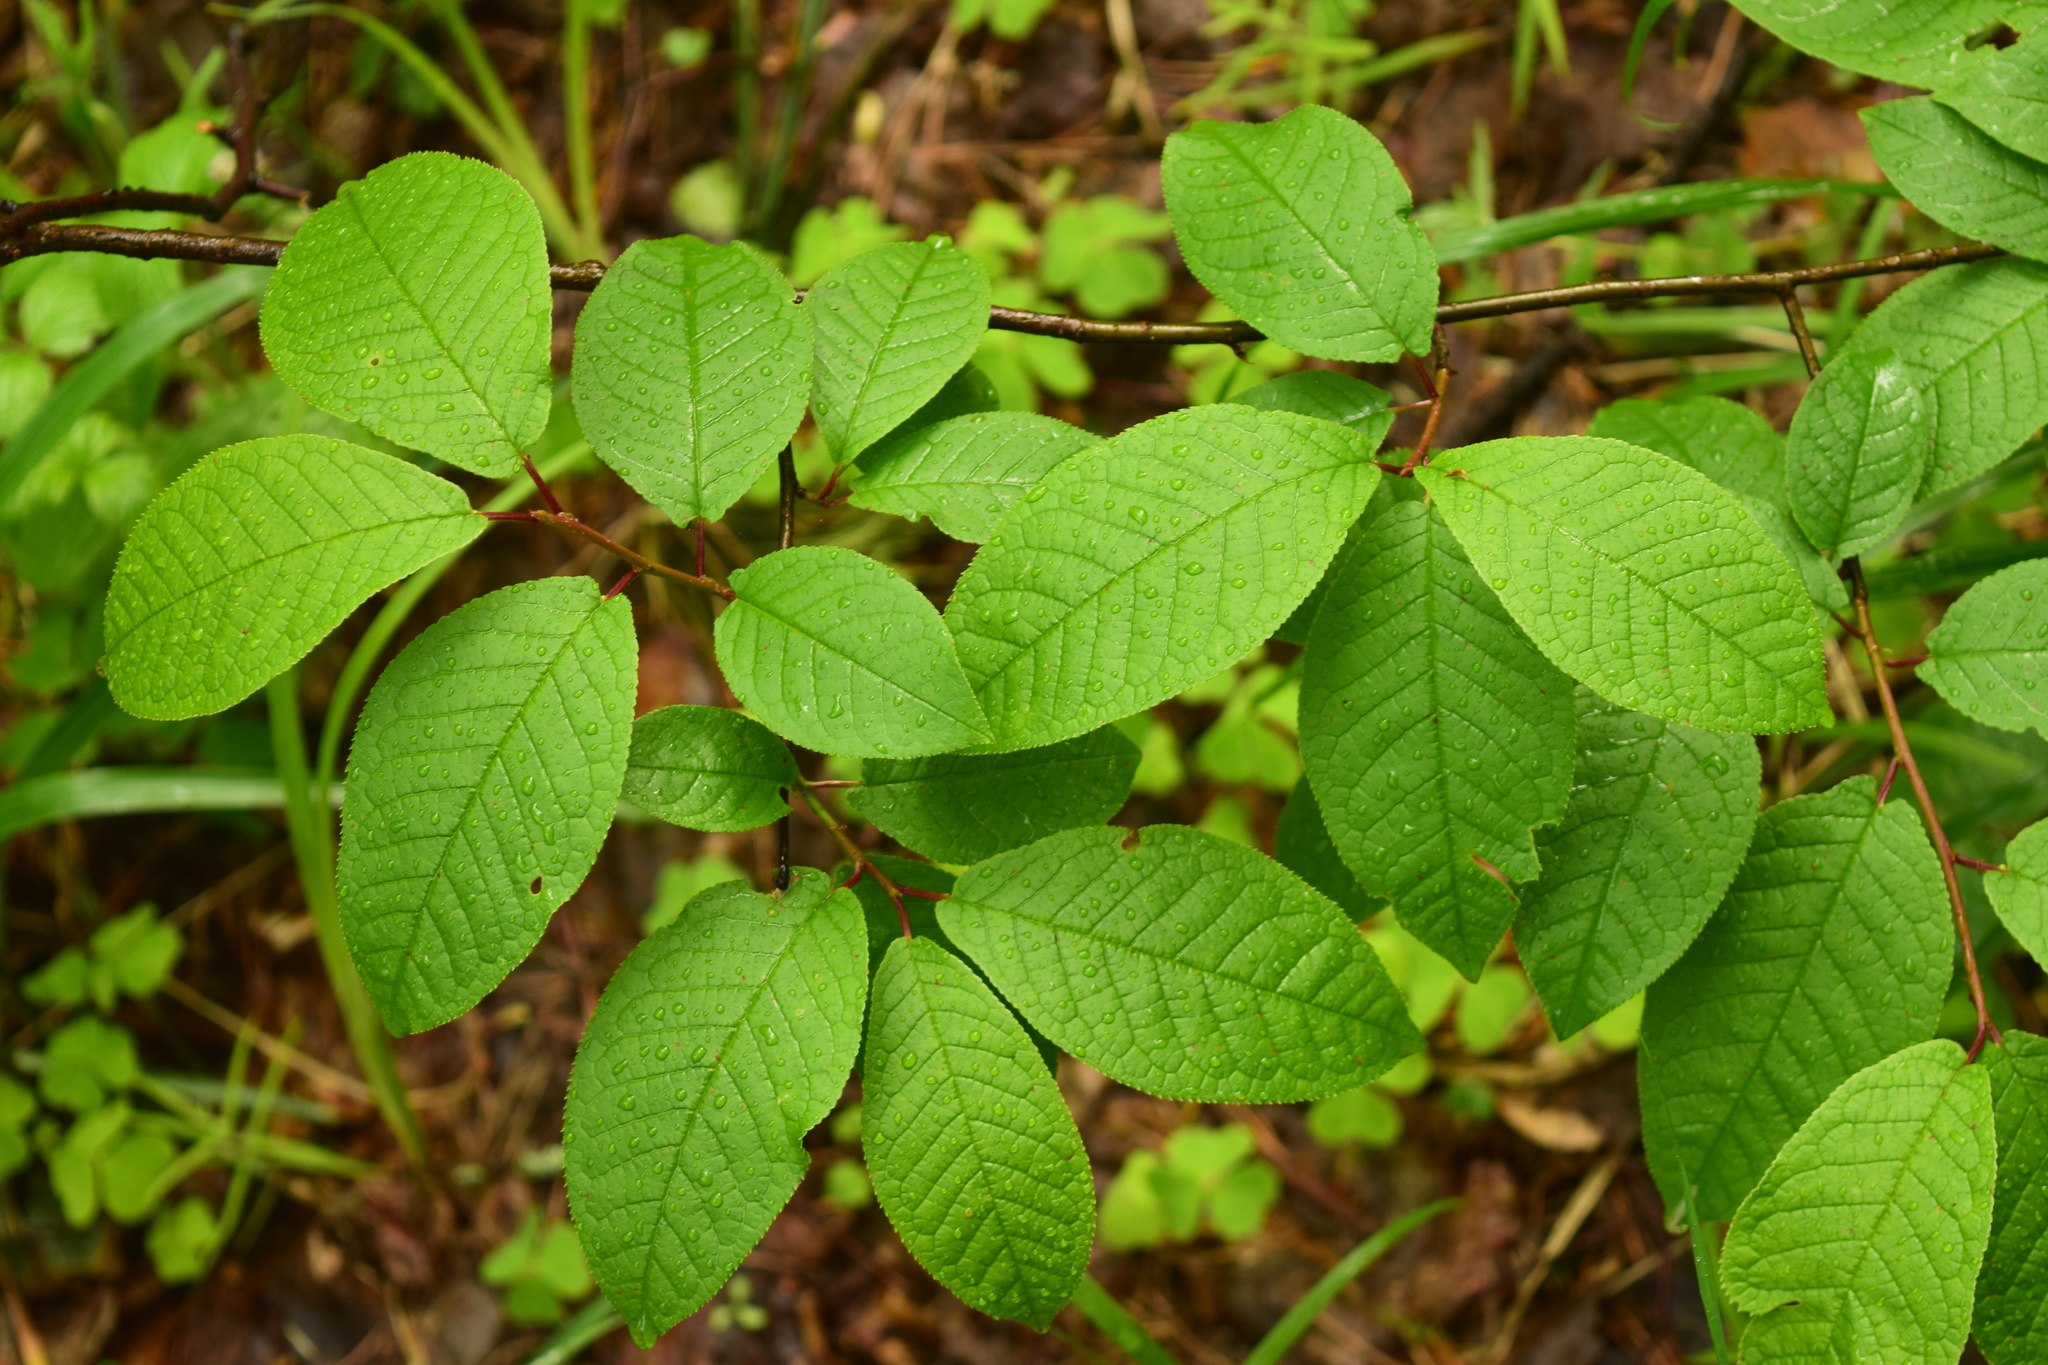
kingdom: Plantae
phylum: Tracheophyta
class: Magnoliopsida
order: Rosales
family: Rosaceae
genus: Prunus
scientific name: Prunus padus
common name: Bird cherry
